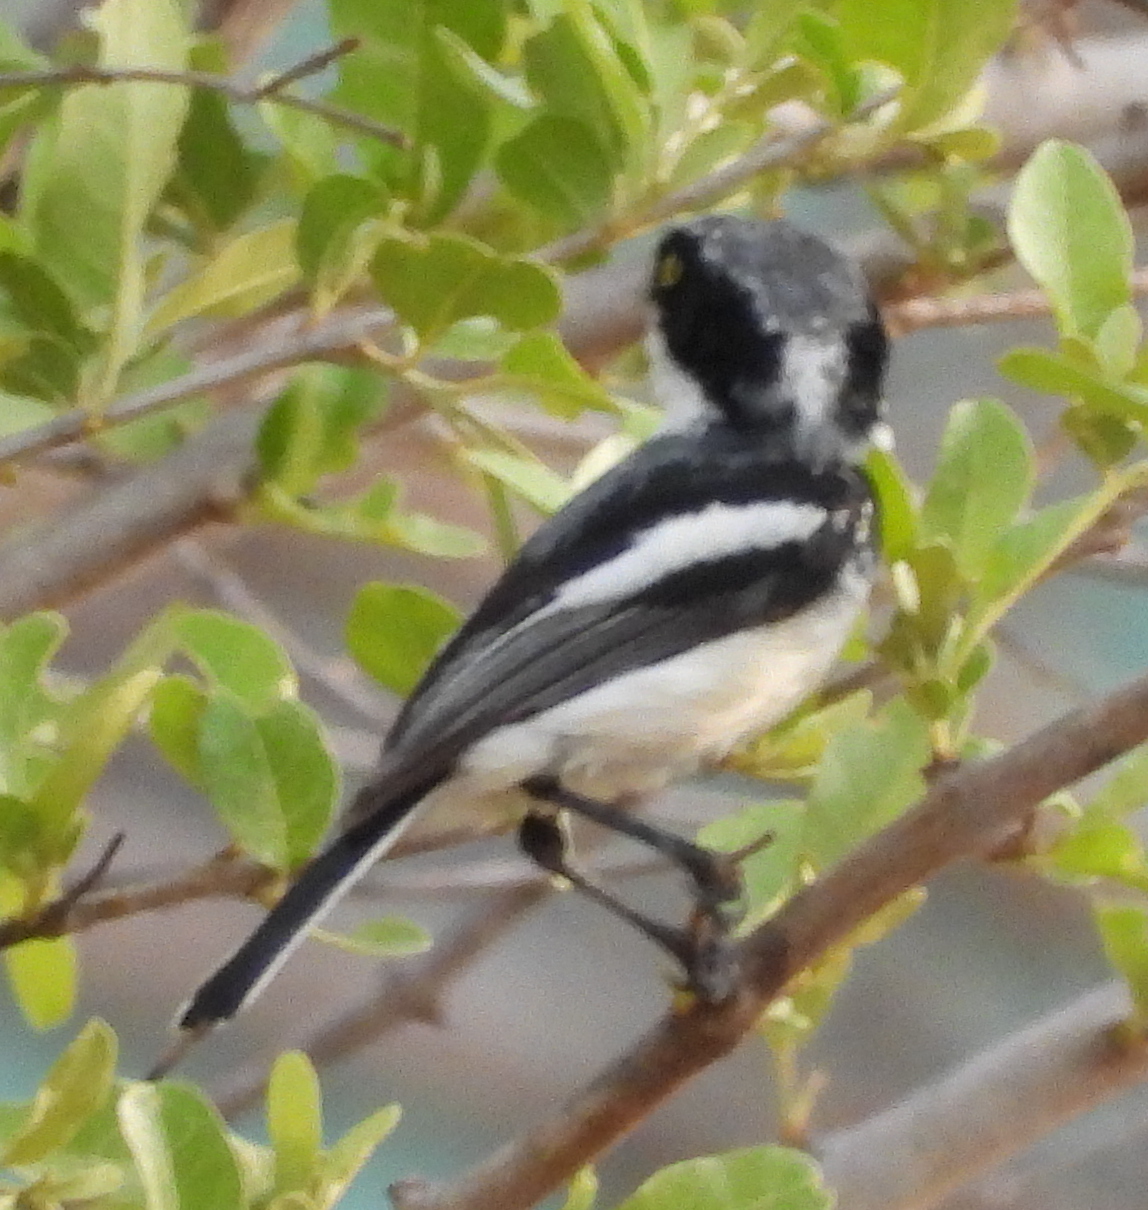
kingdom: Animalia
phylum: Chordata
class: Aves
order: Passeriformes
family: Platysteiridae
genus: Batis
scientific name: Batis molitor
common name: Chinspot batis
